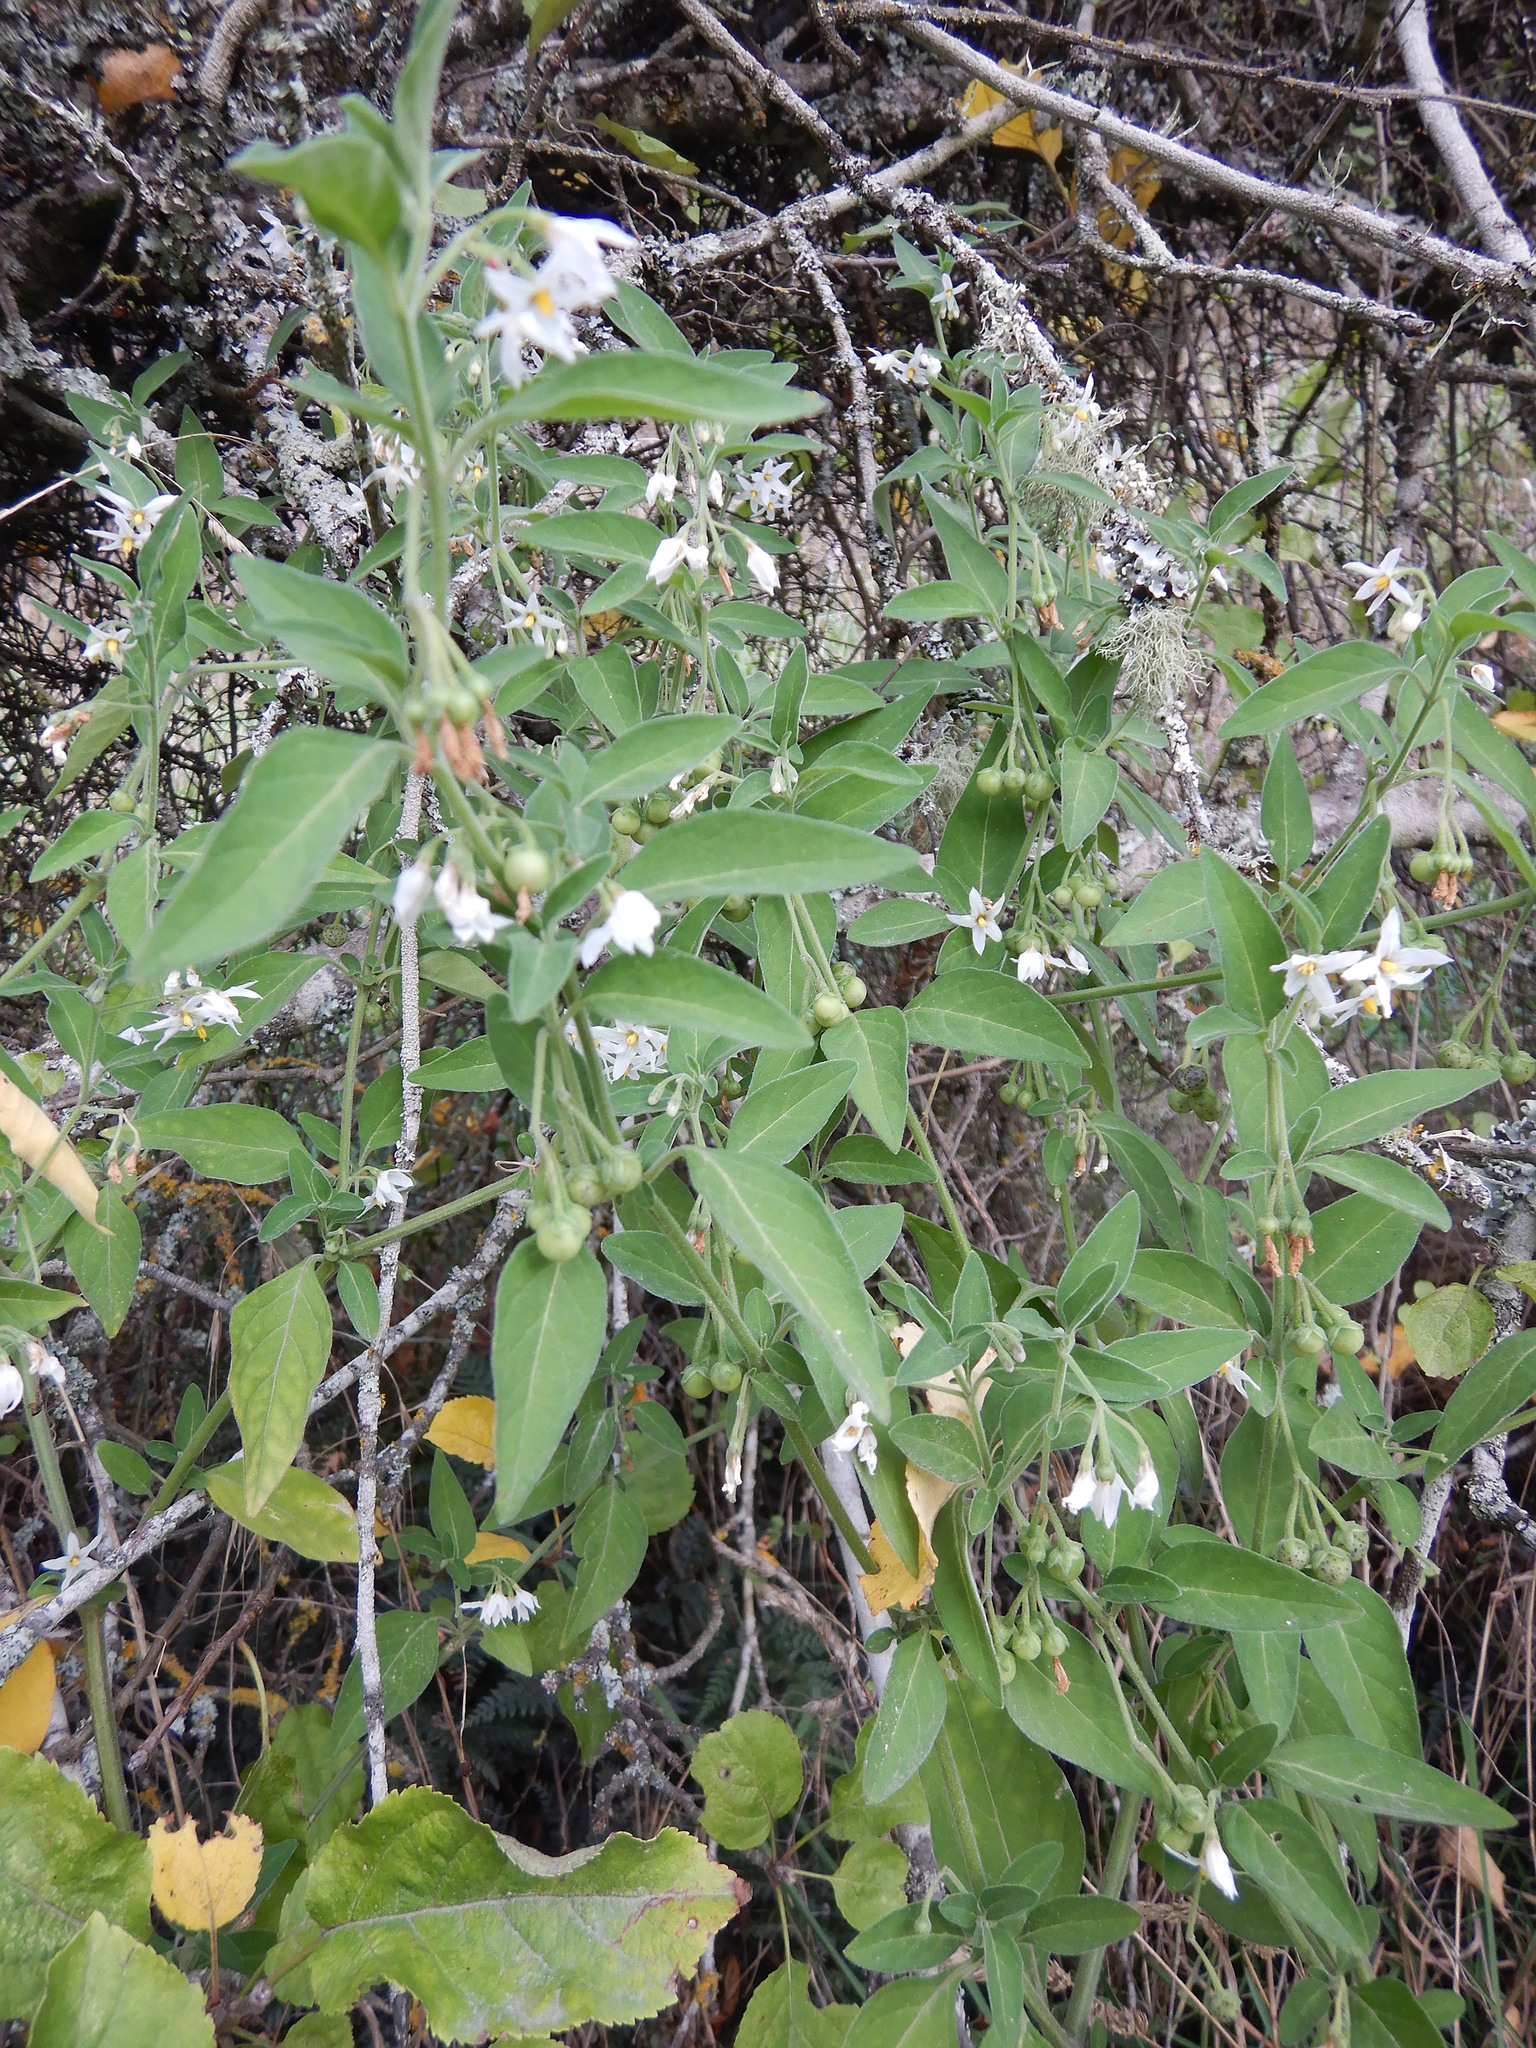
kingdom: Plantae
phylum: Tracheophyta
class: Magnoliopsida
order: Solanales
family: Solanaceae
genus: Solanum
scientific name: Solanum chenopodioides
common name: Tall nightshade
